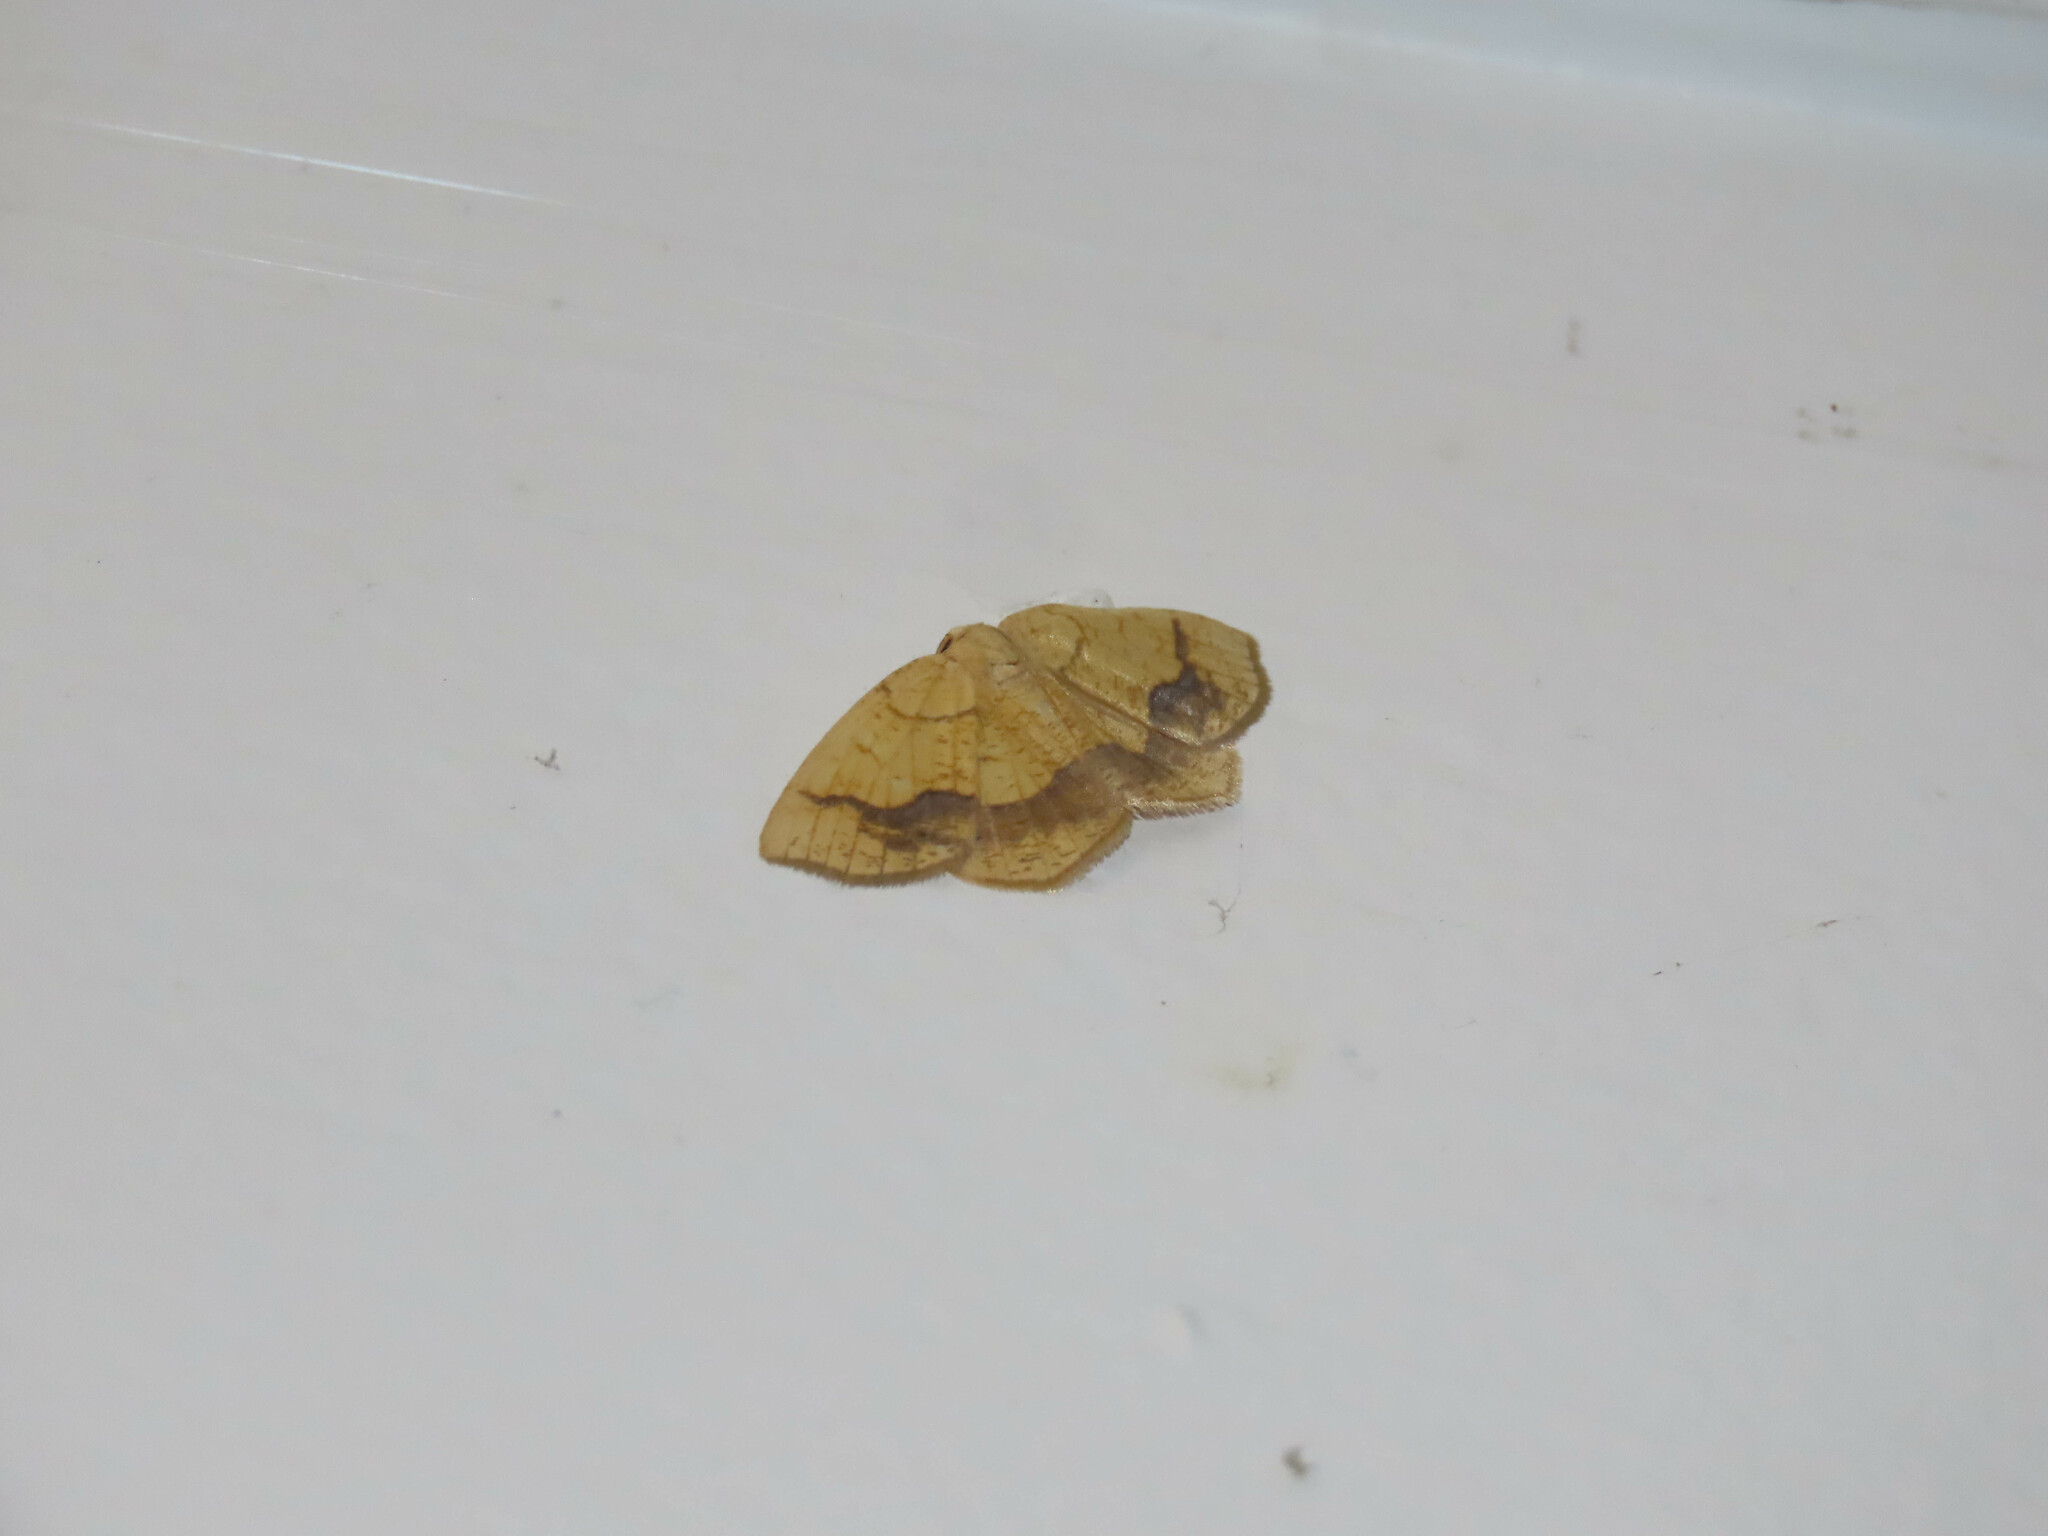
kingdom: Animalia
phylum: Arthropoda
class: Insecta
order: Lepidoptera
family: Geometridae
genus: Nematocampa
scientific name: Nematocampa resistaria
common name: Horned spanworm moth
